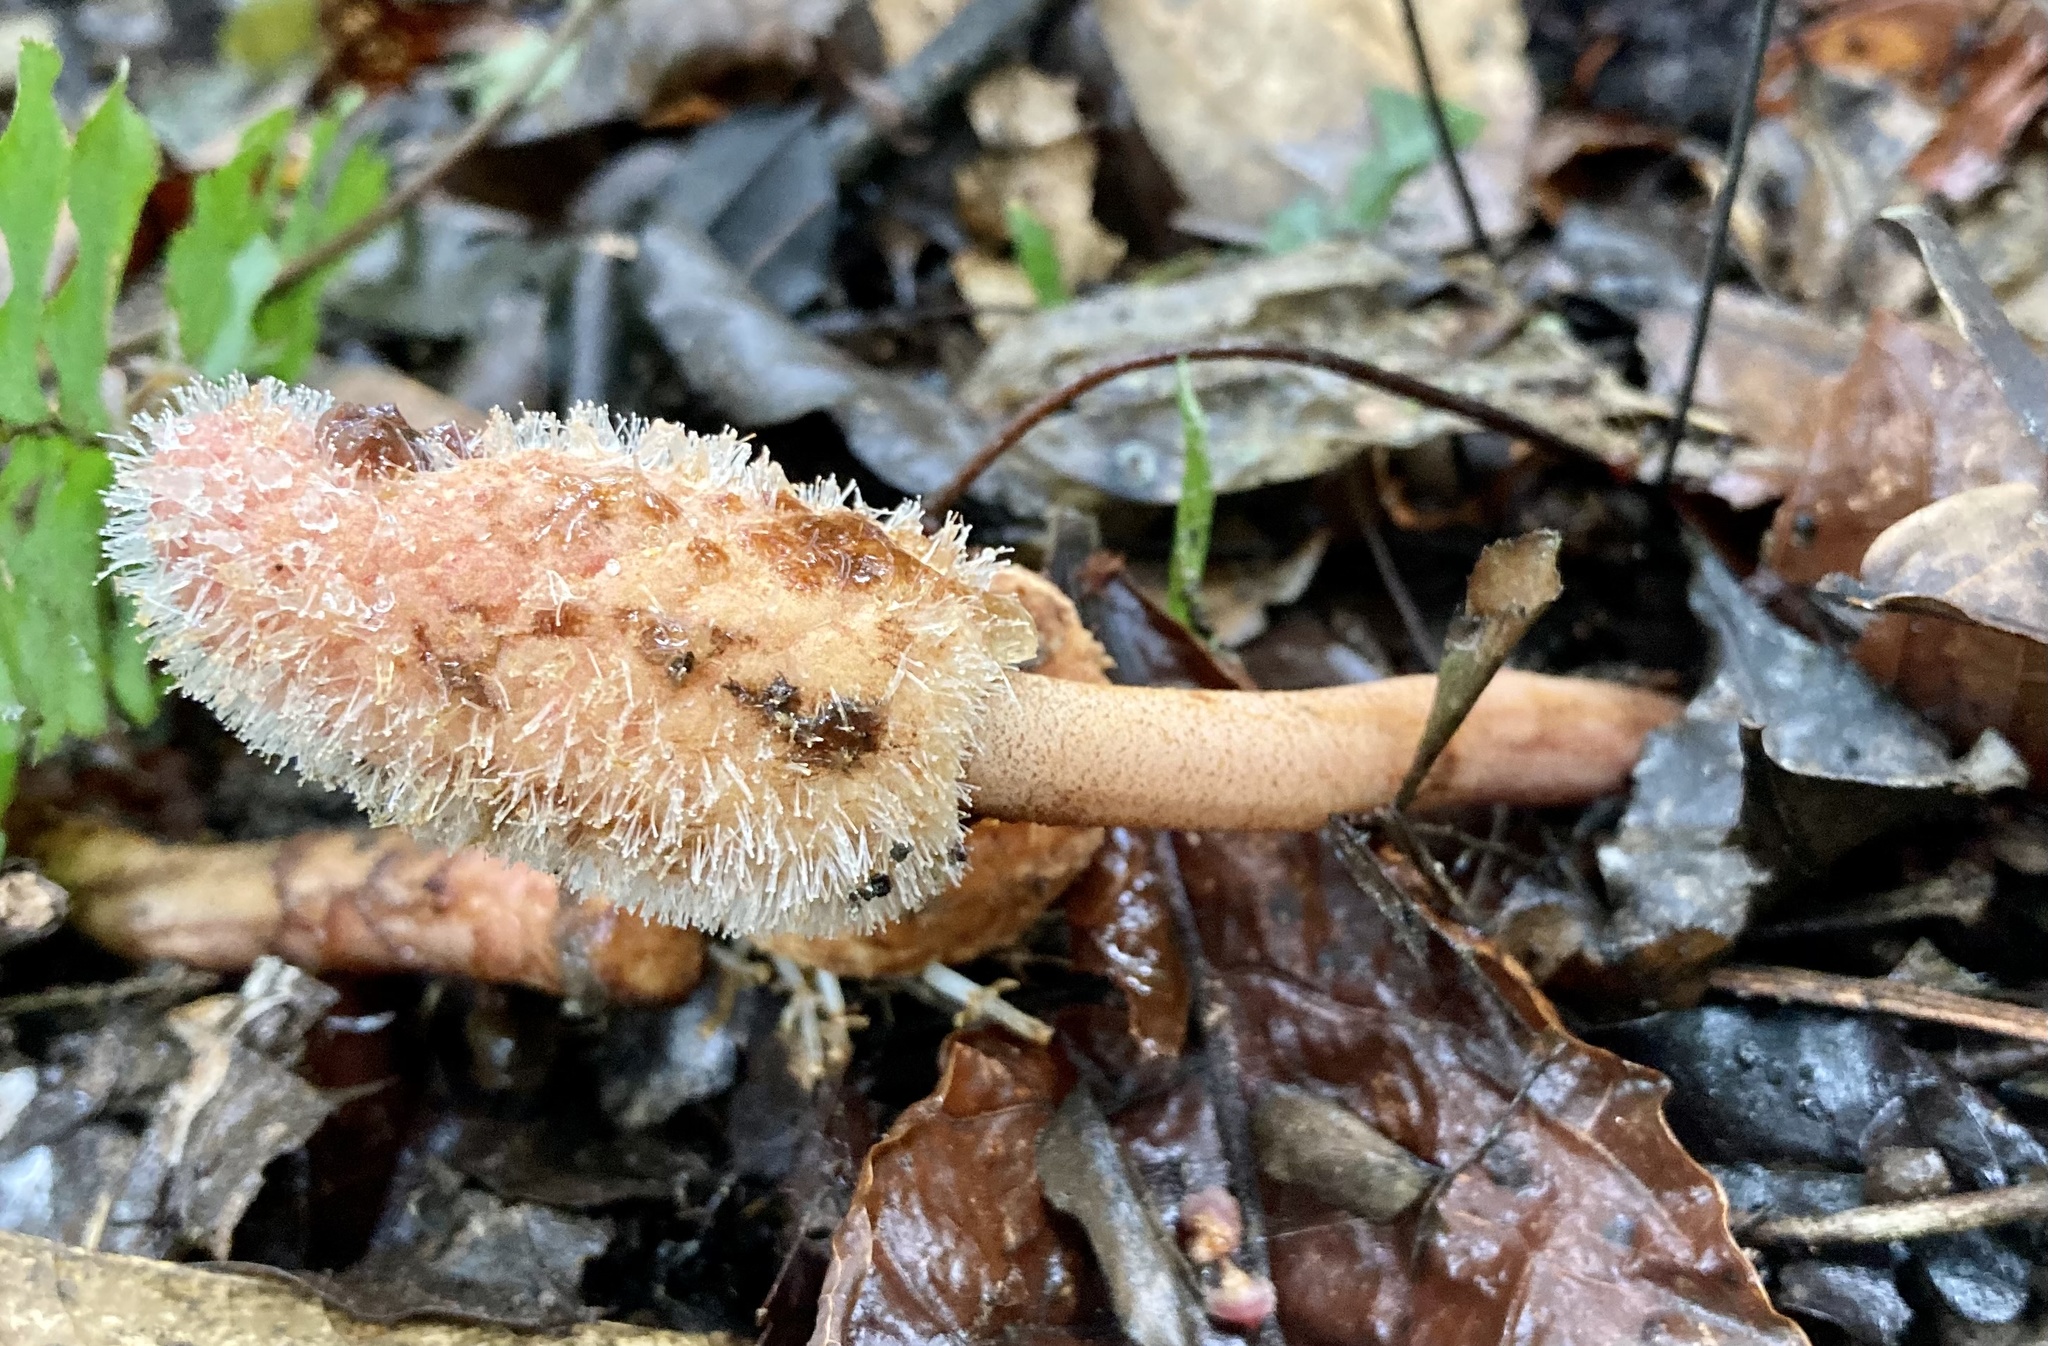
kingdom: Plantae
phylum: Tracheophyta
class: Magnoliopsida
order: Santalales
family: Balanophoraceae
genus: Helosis
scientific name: Helosis cayennensis
